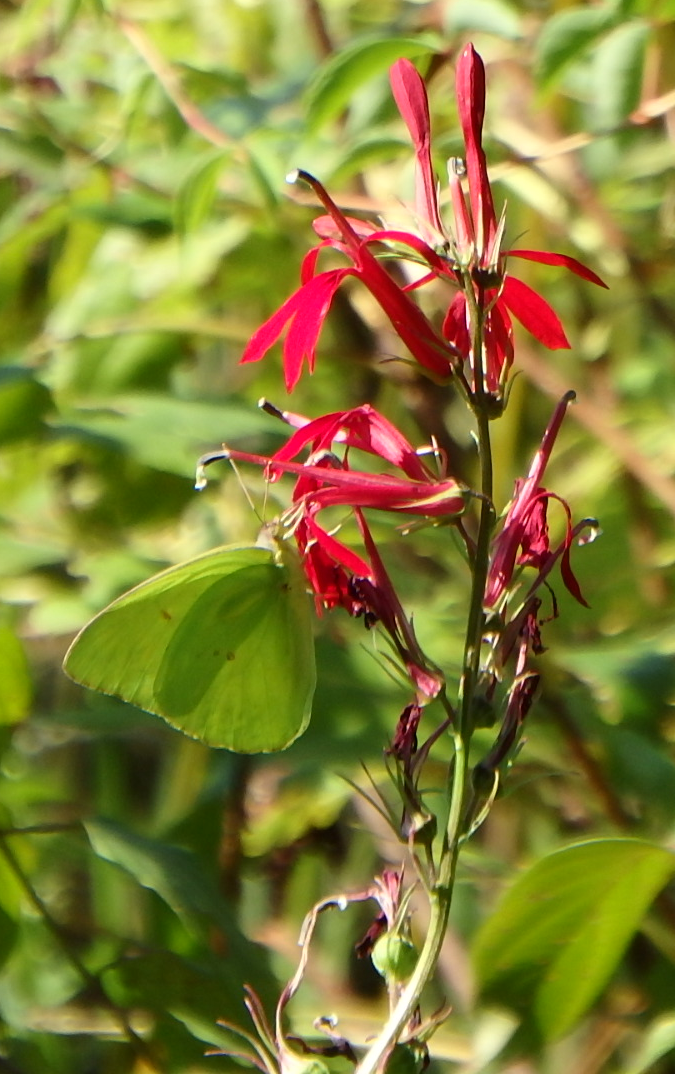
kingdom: Animalia
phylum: Arthropoda
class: Insecta
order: Lepidoptera
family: Pieridae
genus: Phoebis
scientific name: Phoebis sennae
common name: Cloudless sulphur
